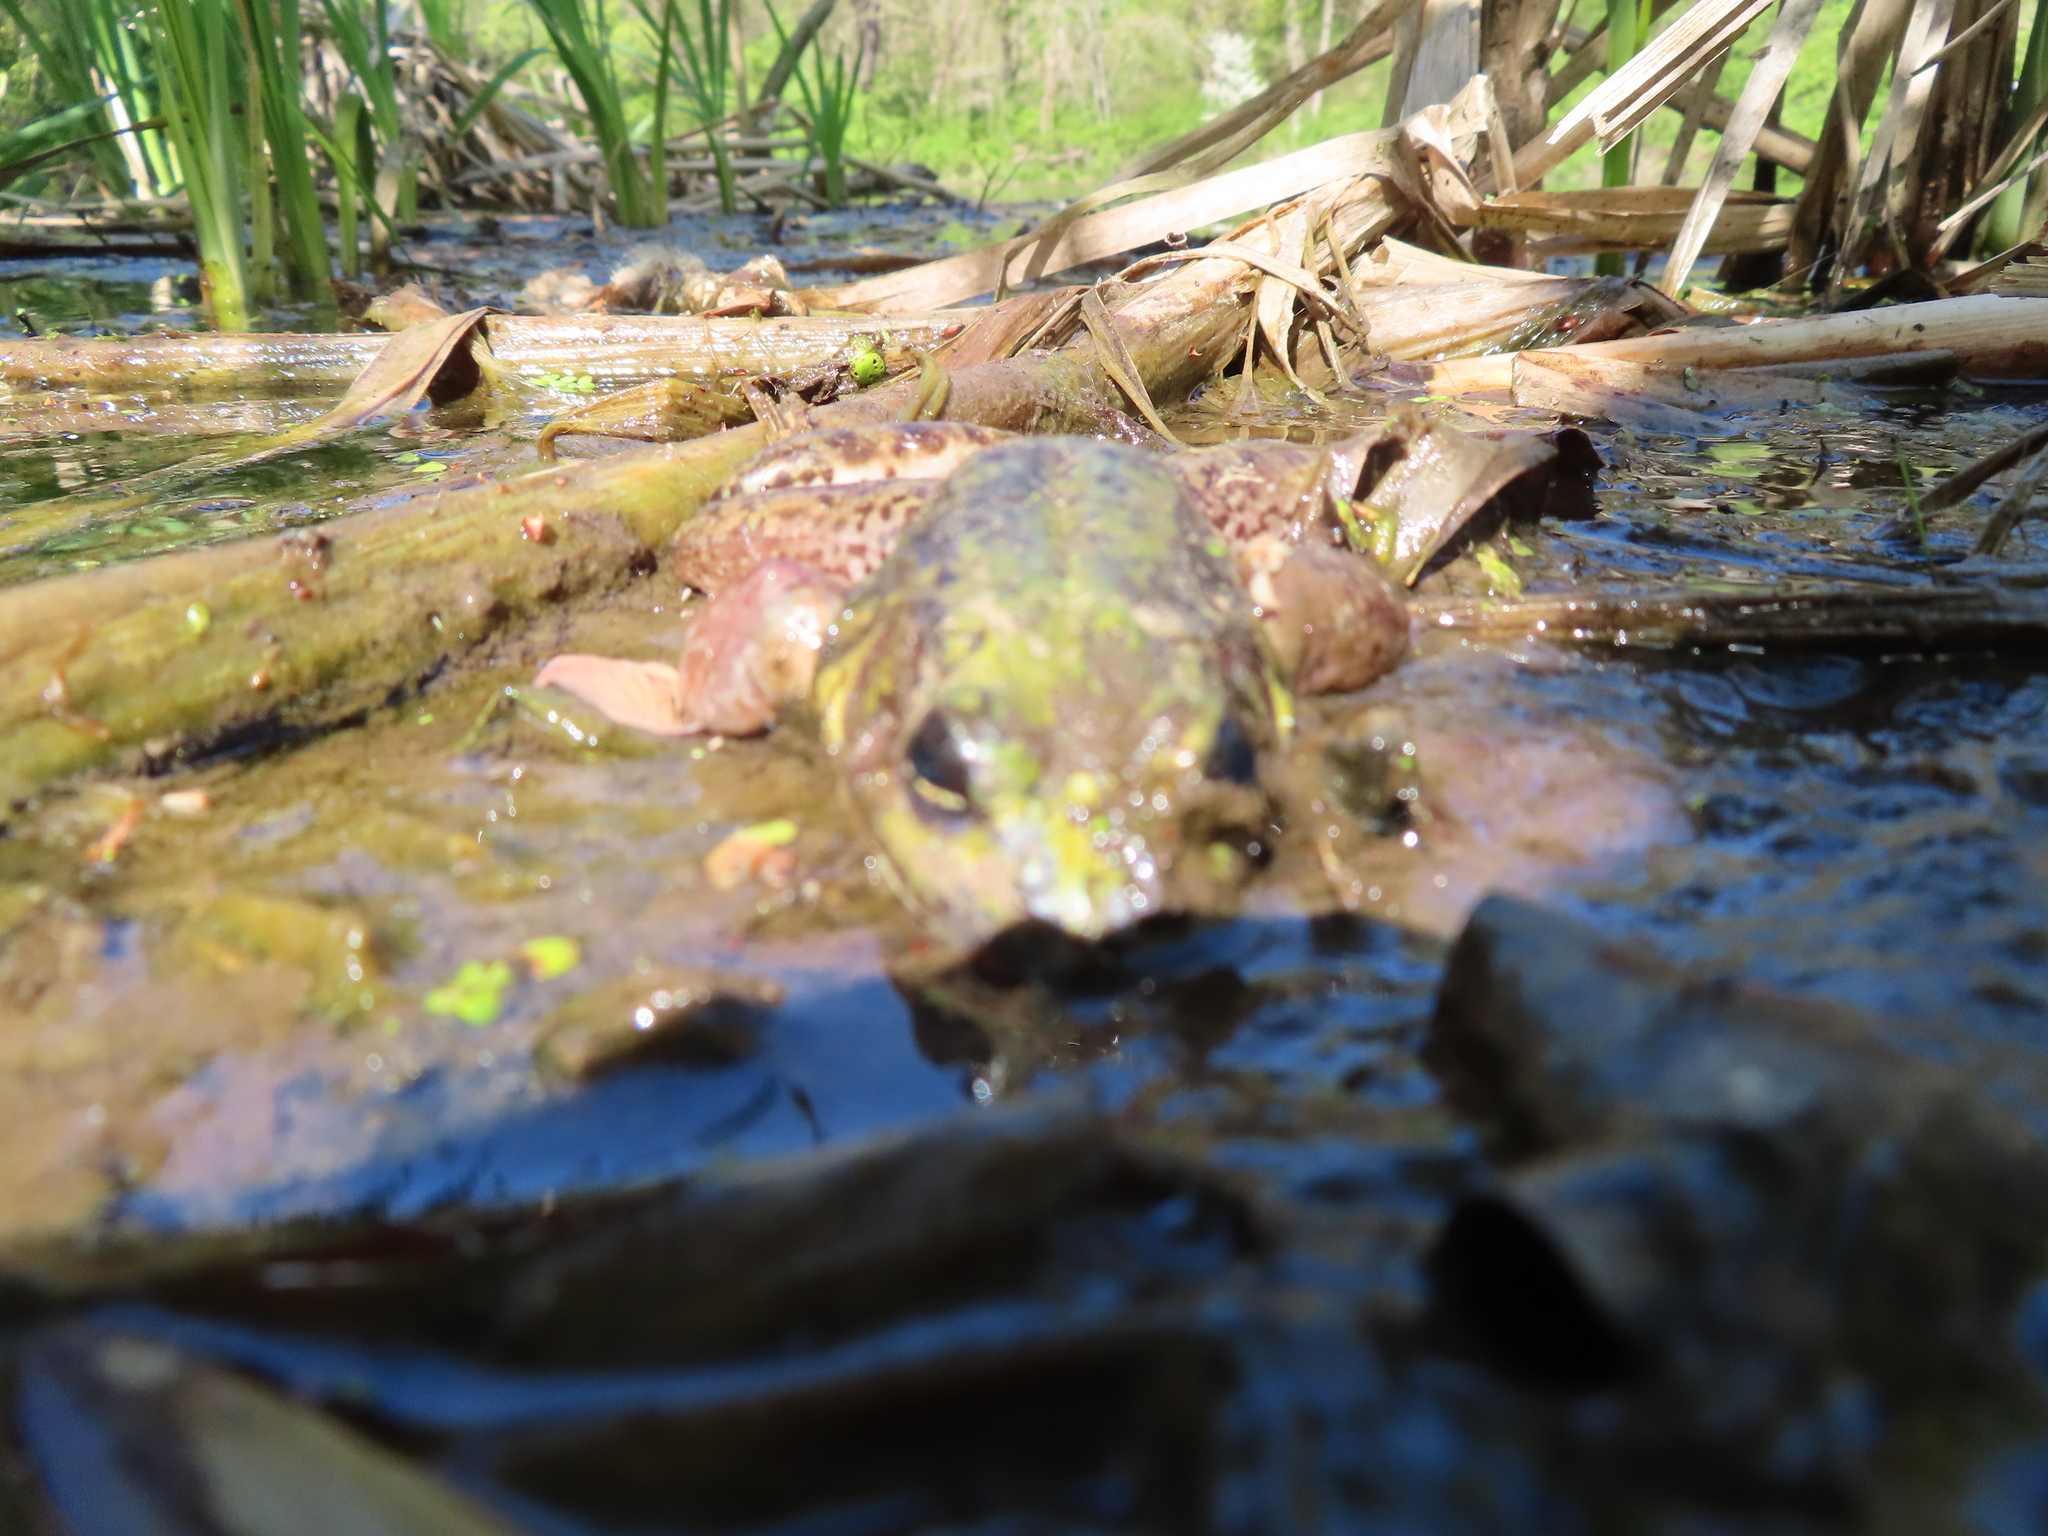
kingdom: Animalia
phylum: Chordata
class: Amphibia
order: Anura
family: Ranidae
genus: Lithobates
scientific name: Lithobates catesbeianus
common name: American bullfrog
